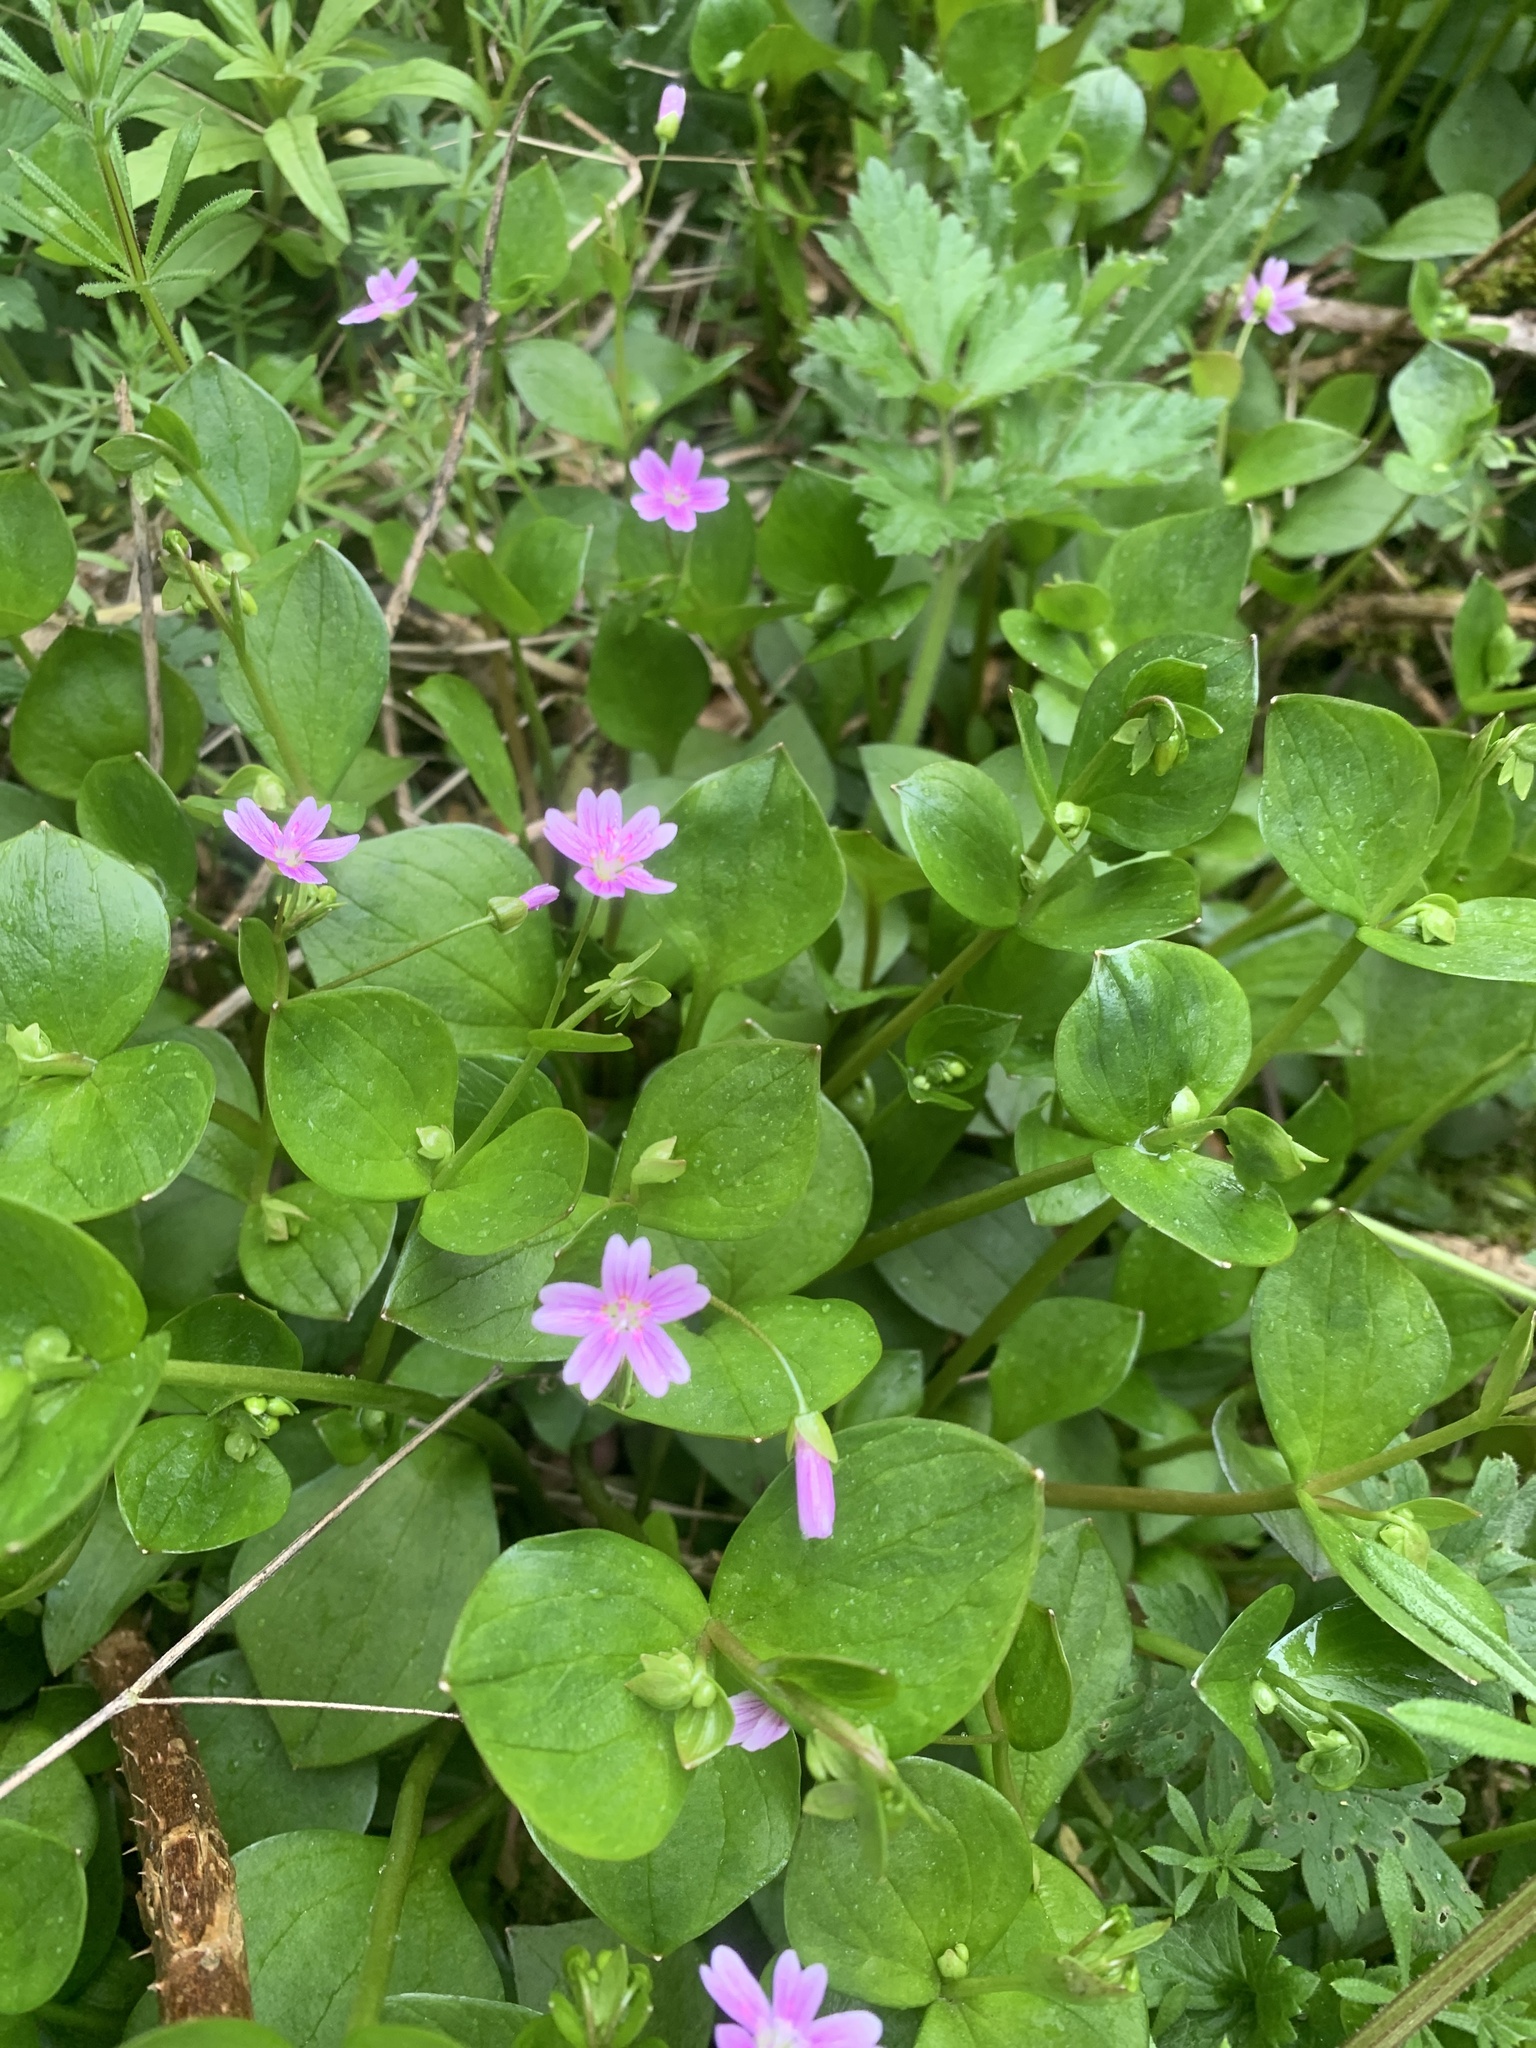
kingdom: Plantae
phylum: Tracheophyta
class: Magnoliopsida
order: Caryophyllales
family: Montiaceae
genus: Claytonia
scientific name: Claytonia sibirica
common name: Pink purslane
